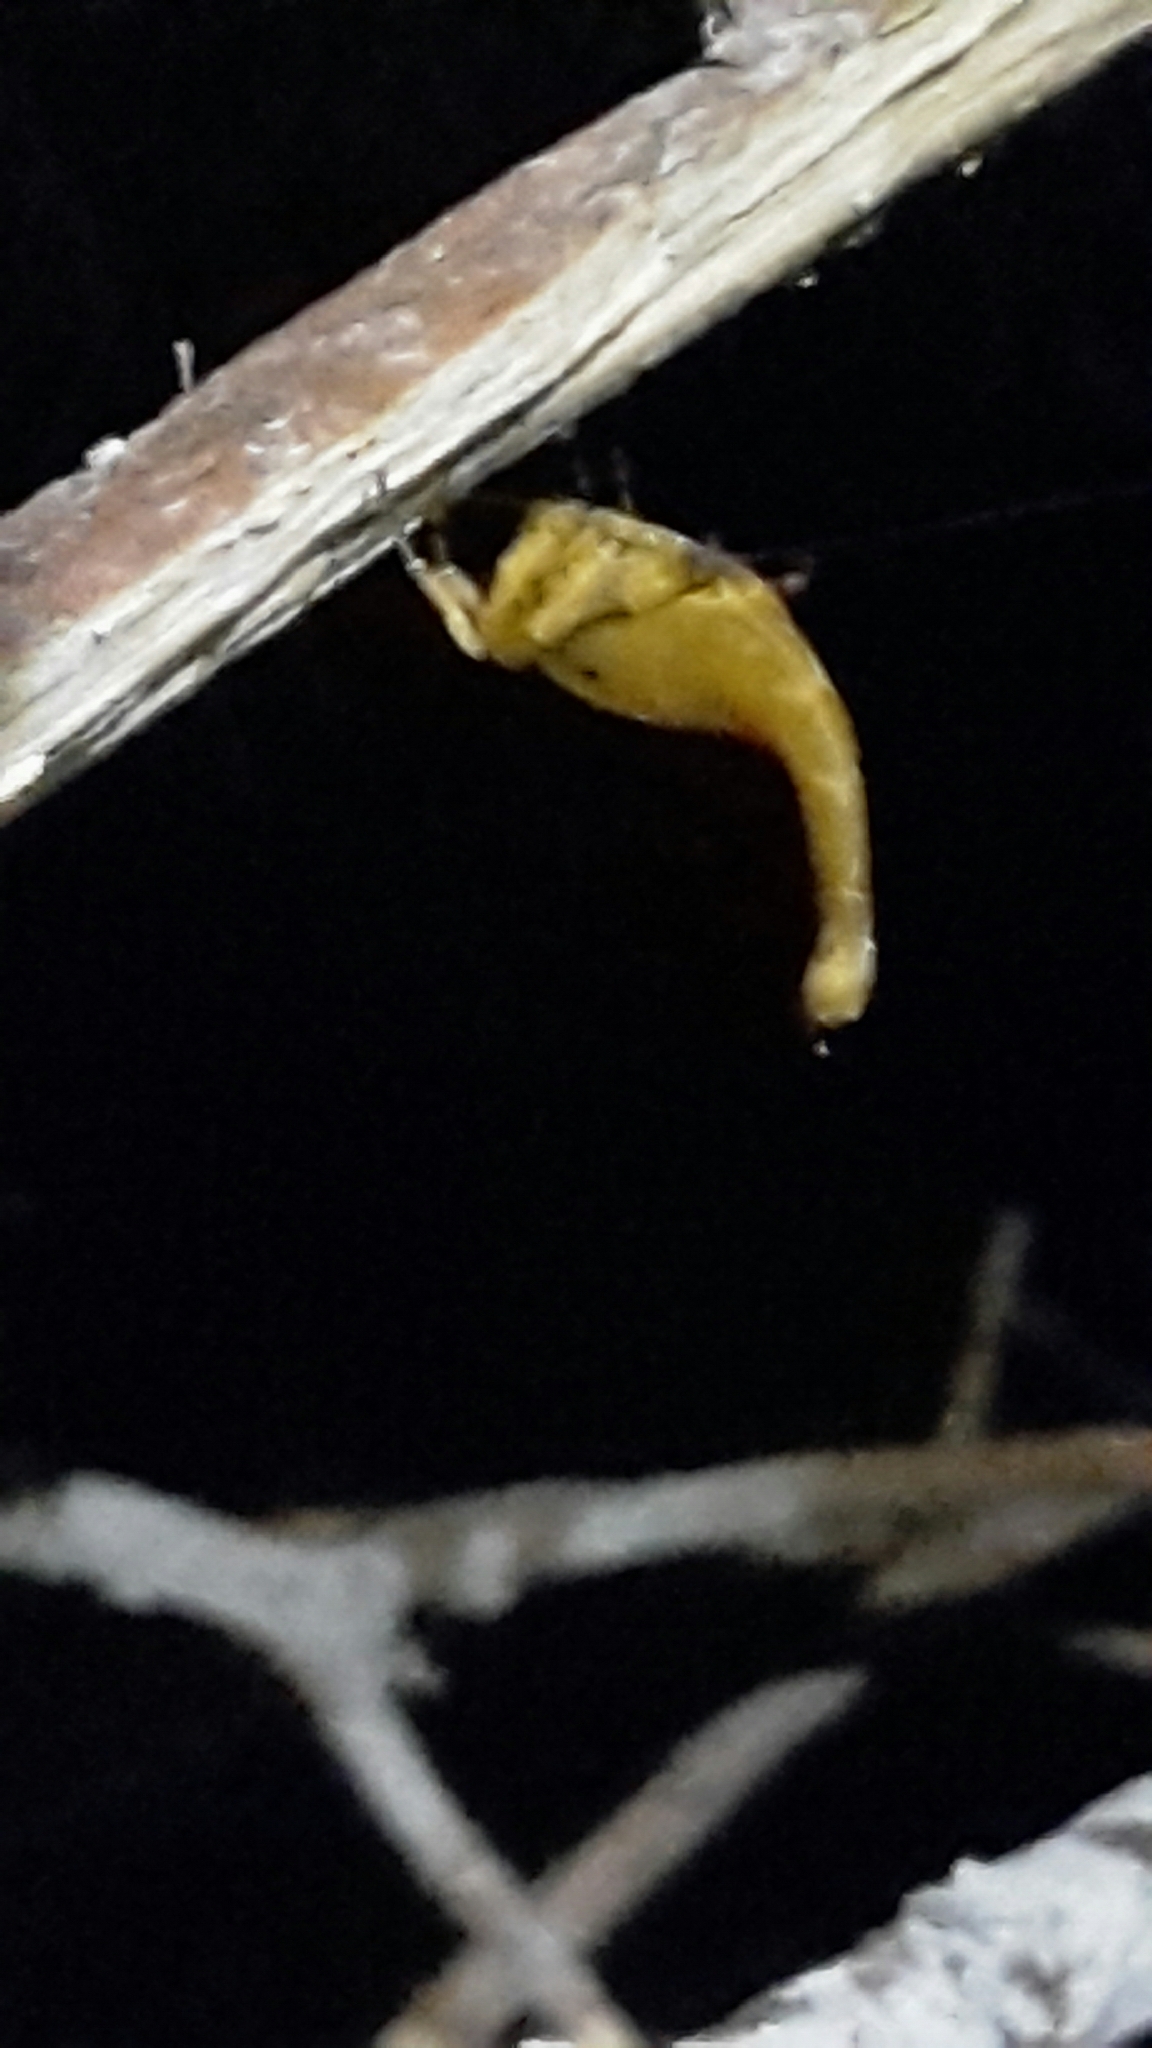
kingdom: Animalia
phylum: Arthropoda
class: Arachnida
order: Araneae
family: Araneidae
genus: Arachnura
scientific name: Arachnura feredayi
